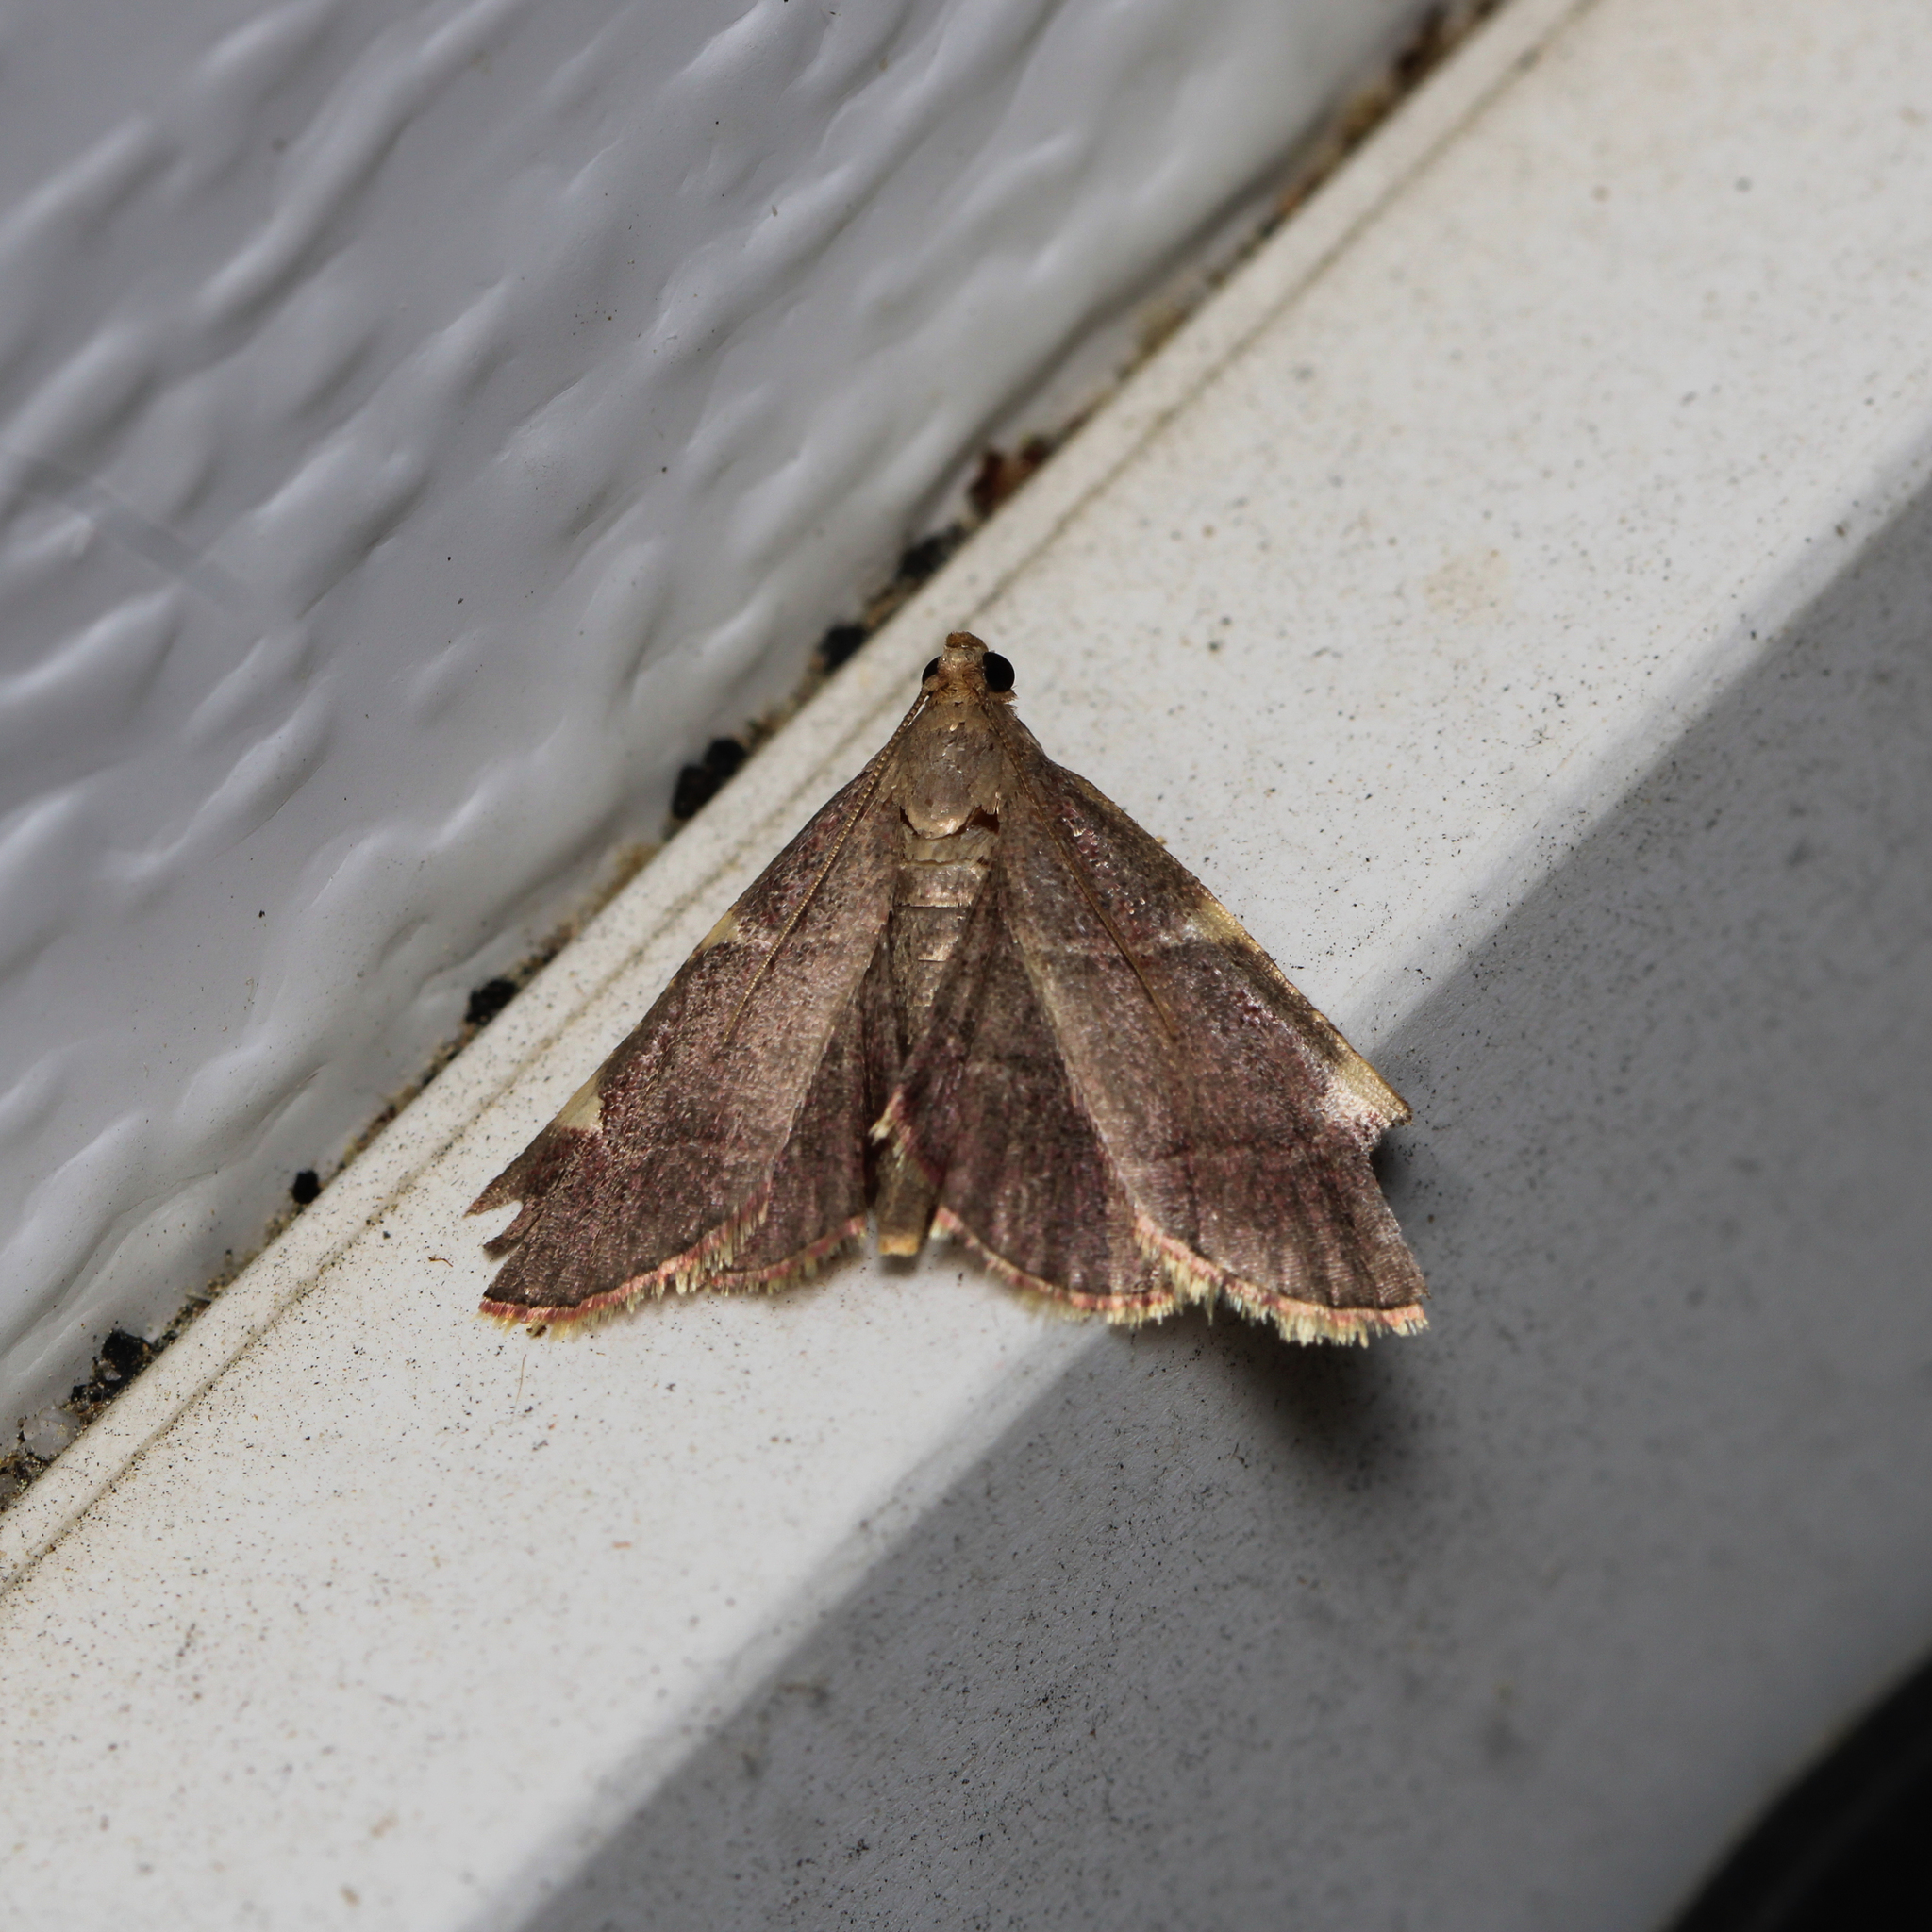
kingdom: Animalia
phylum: Arthropoda
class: Insecta
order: Lepidoptera
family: Pyralidae
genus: Hypsopygia
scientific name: Hypsopygia olinalis
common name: Yellow-fringed dolichomia moth
